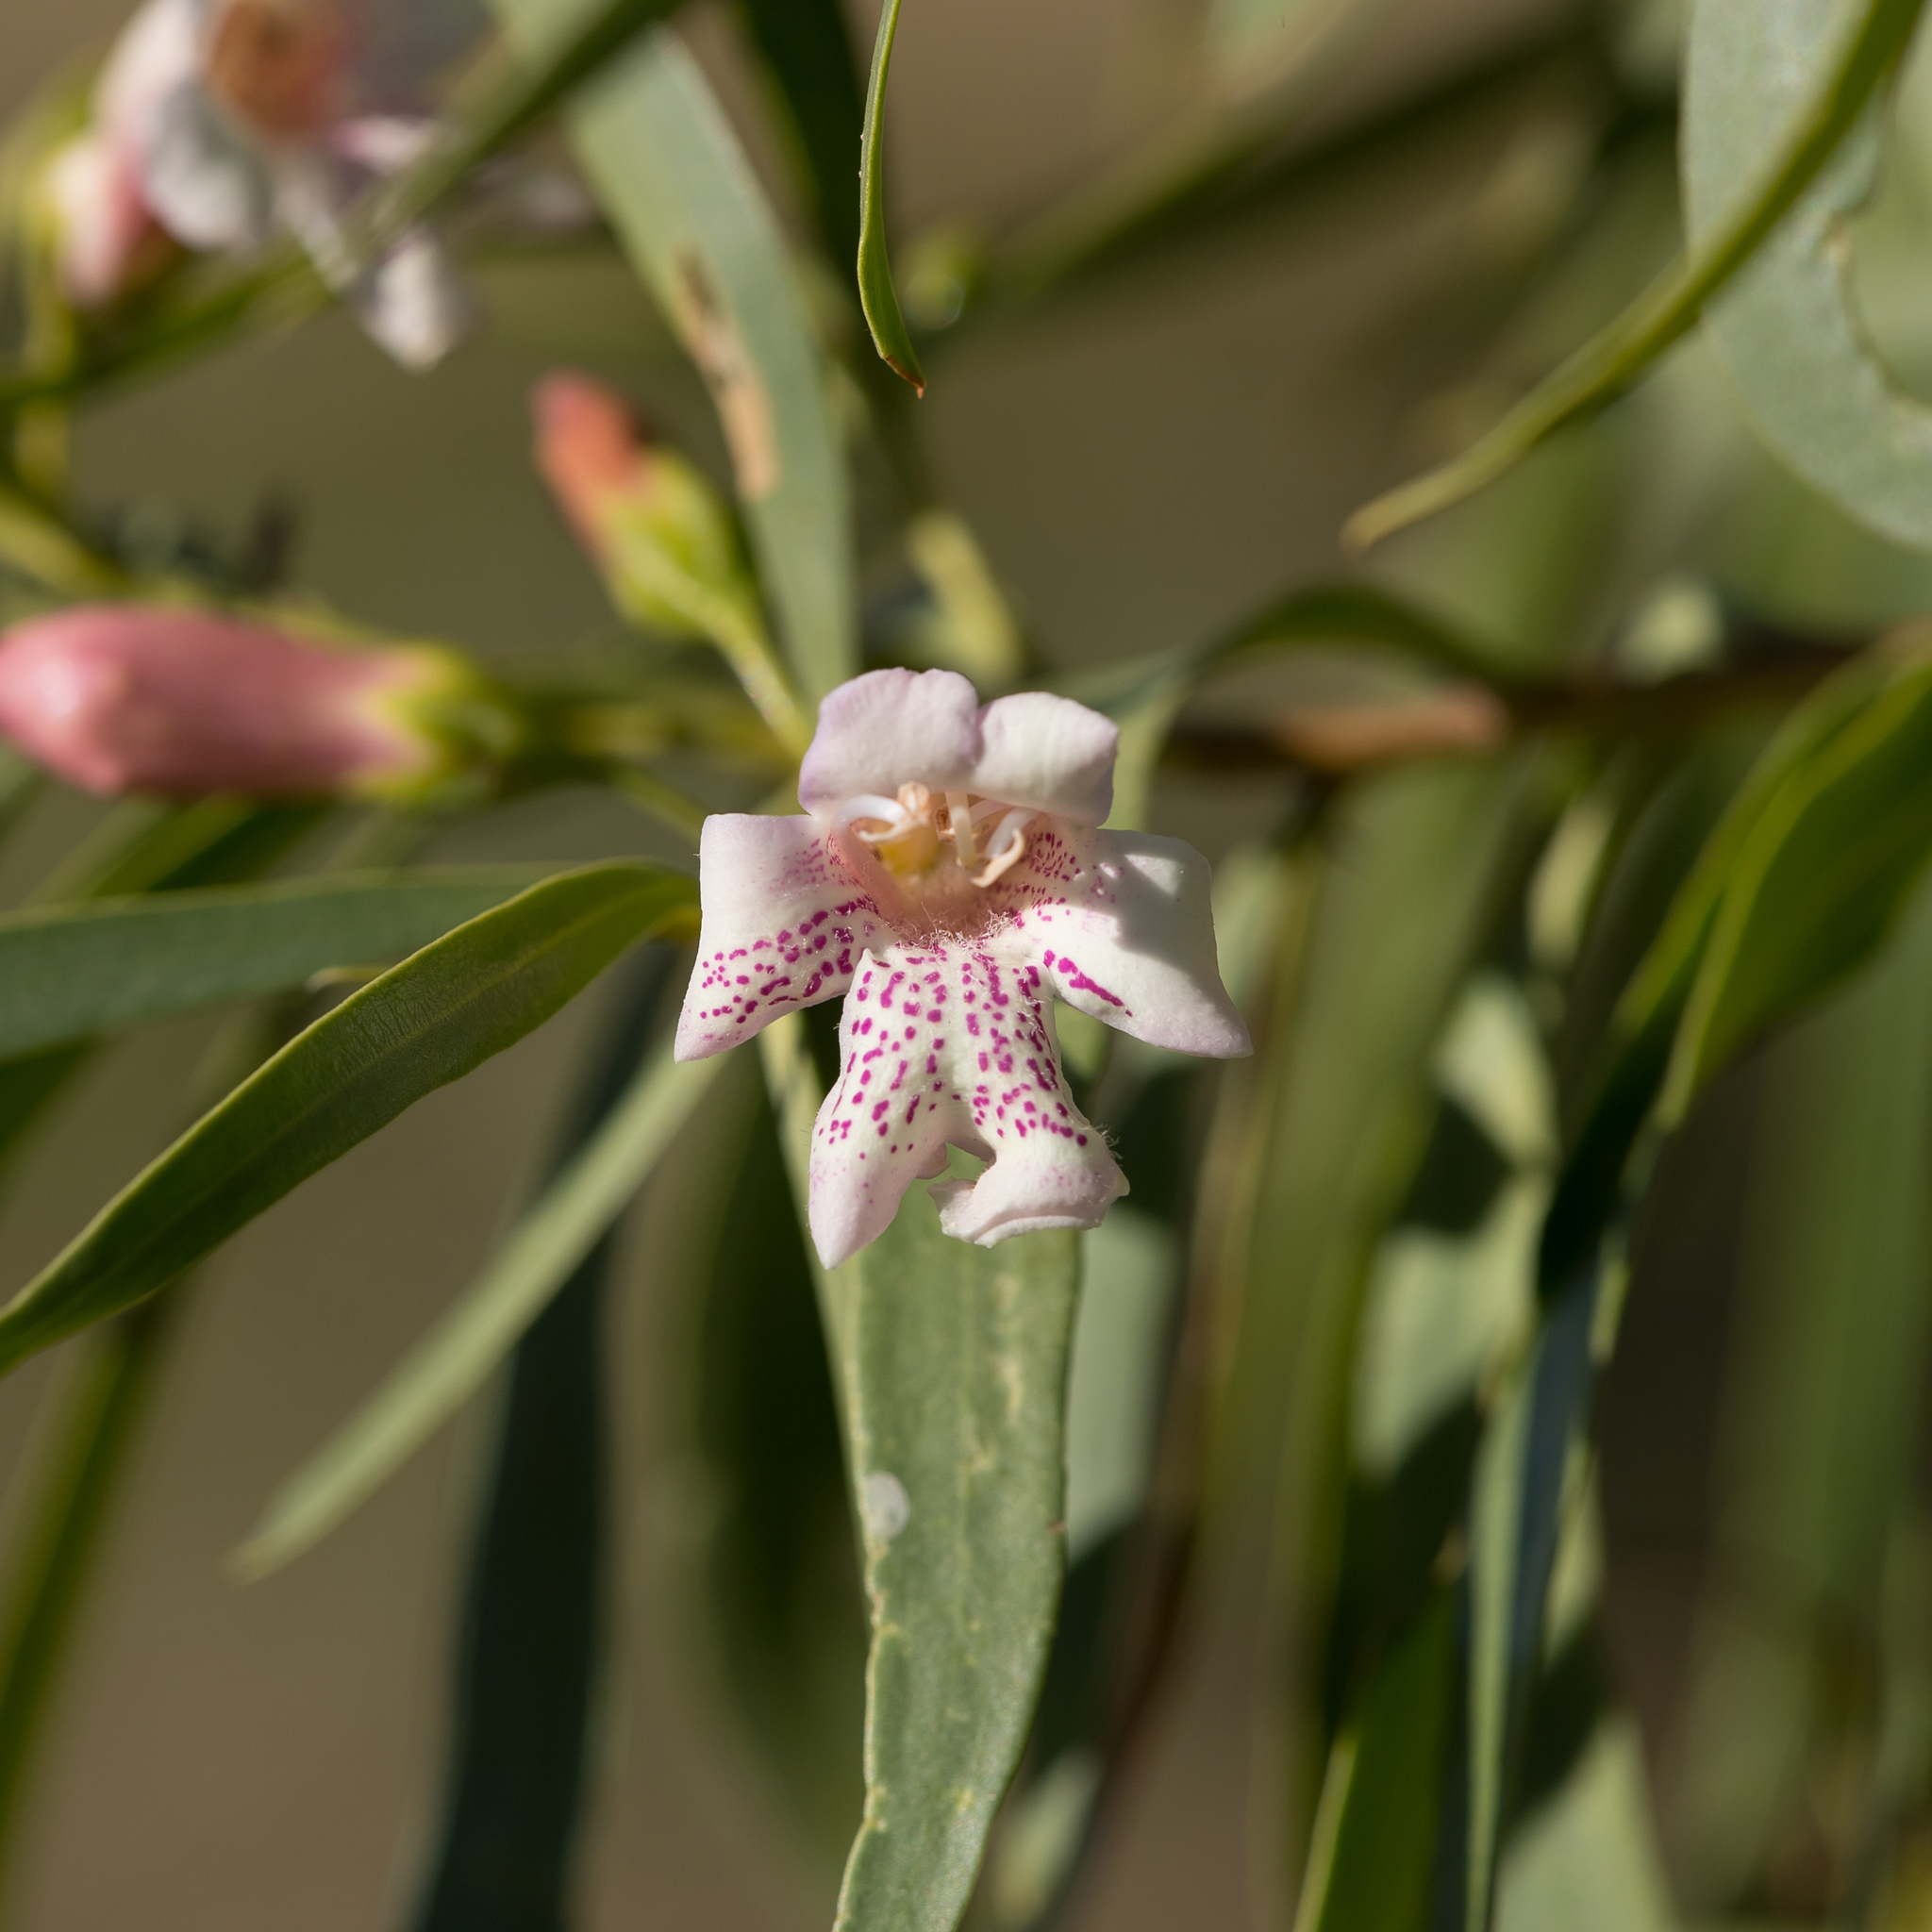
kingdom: Plantae
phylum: Tracheophyta
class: Magnoliopsida
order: Lamiales
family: Scrophulariaceae
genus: Eremophila
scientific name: Eremophila bignoniiflora
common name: Bignonia emu-bush
